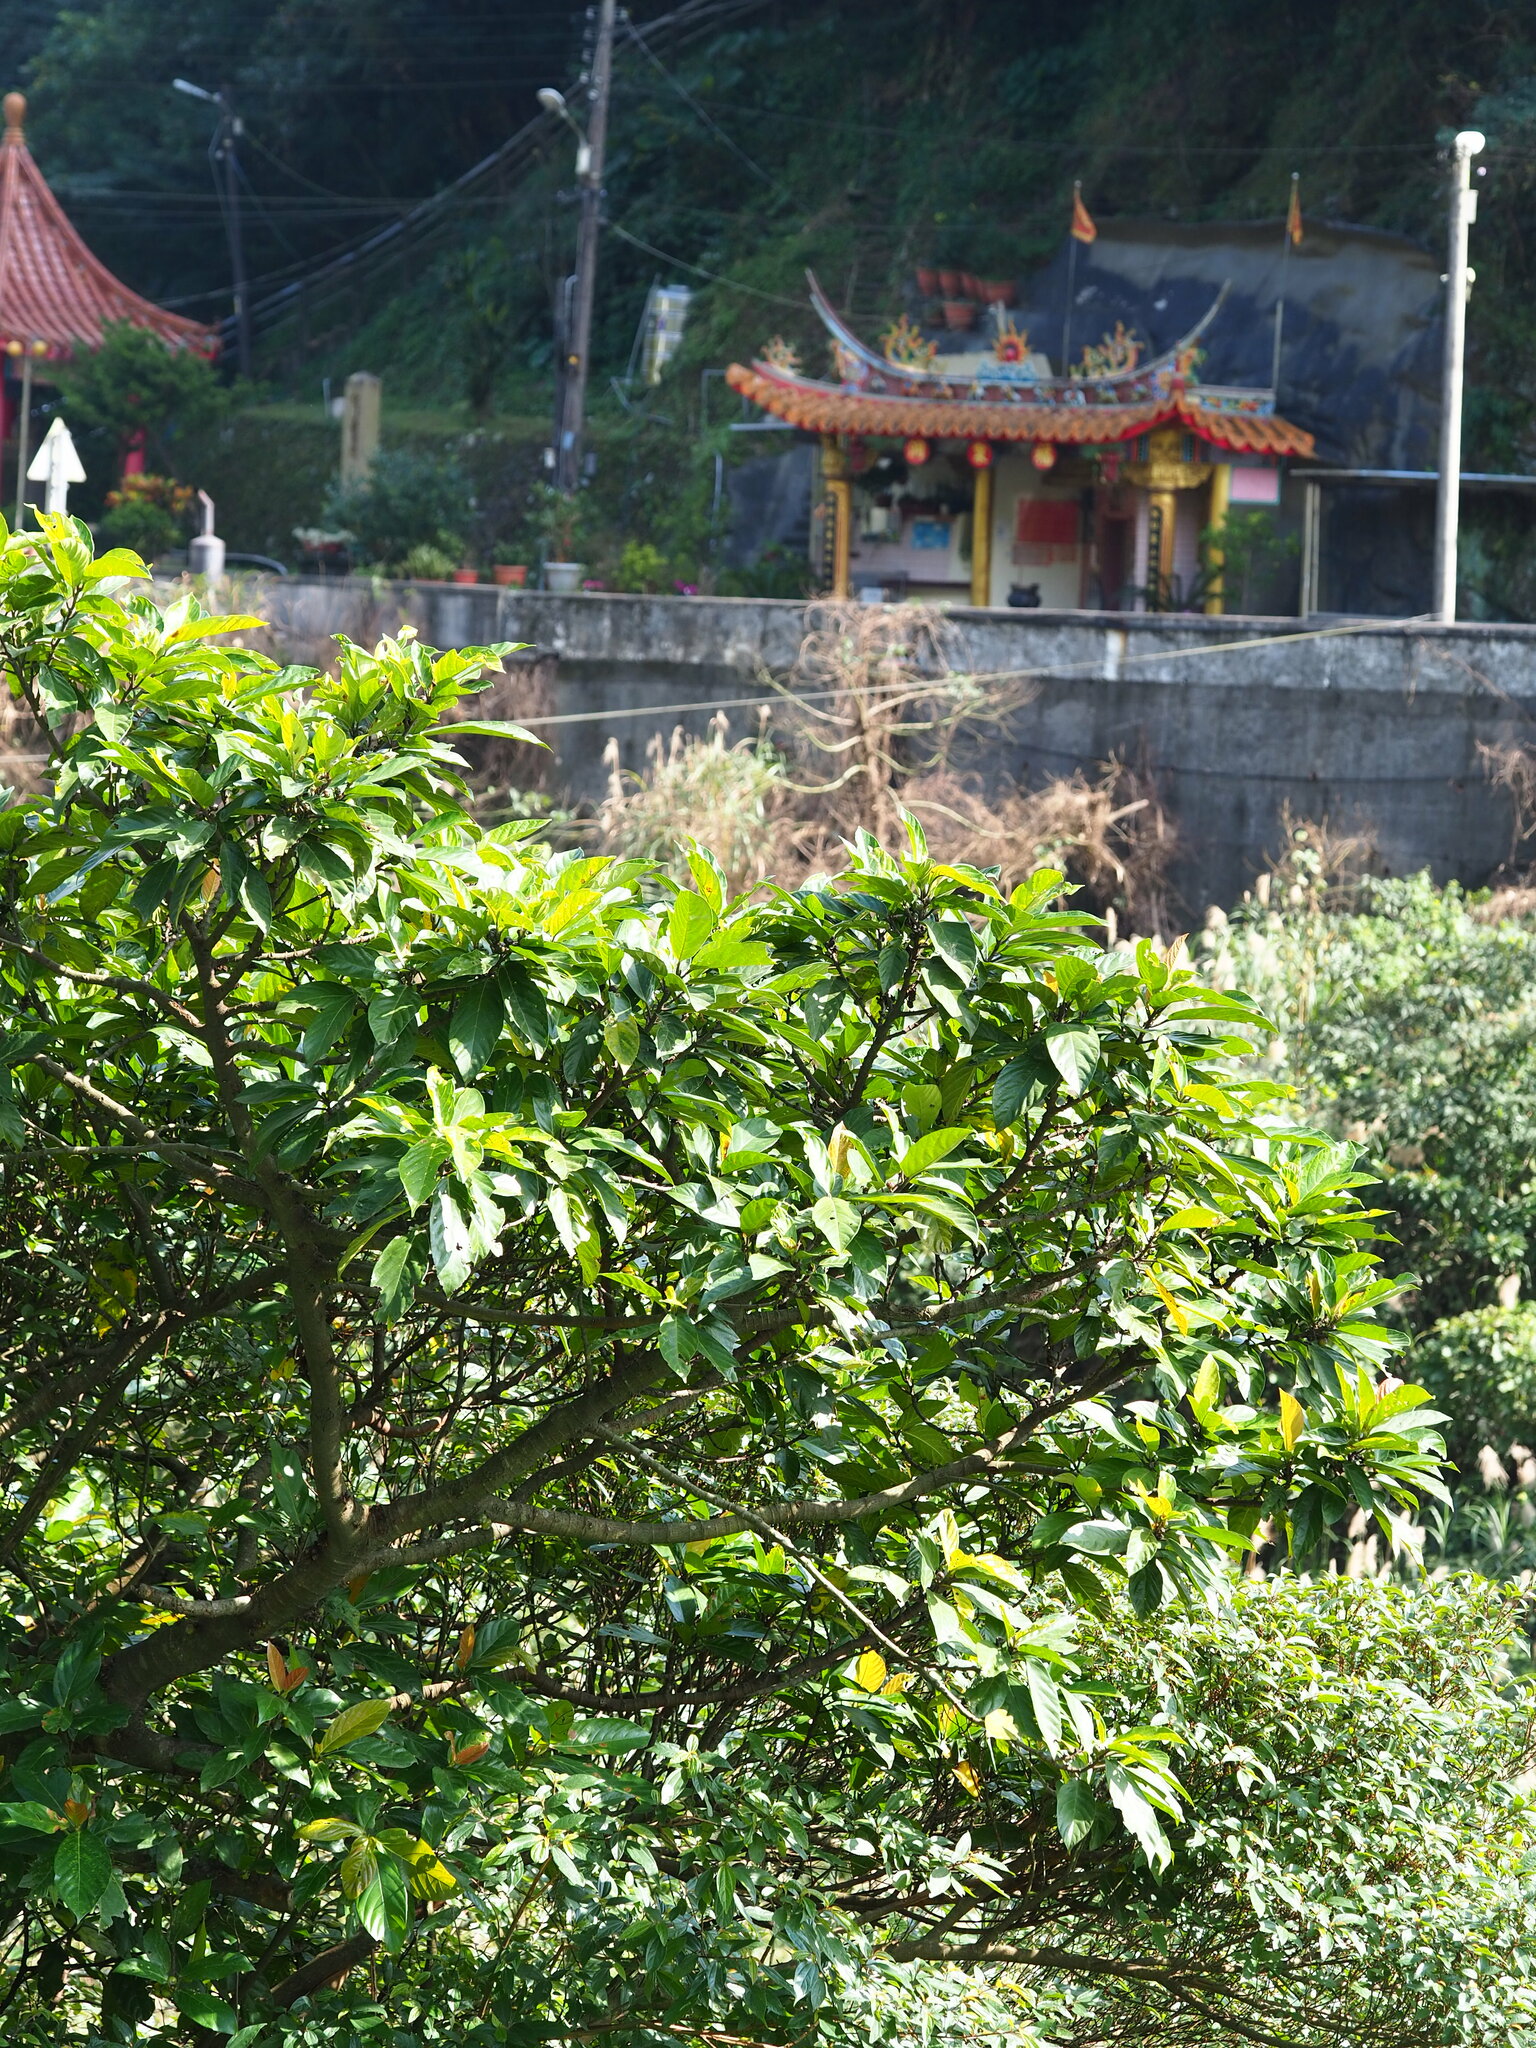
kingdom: Plantae
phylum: Tracheophyta
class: Magnoliopsida
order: Rosales
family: Moraceae
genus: Ficus
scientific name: Ficus benguetensis
